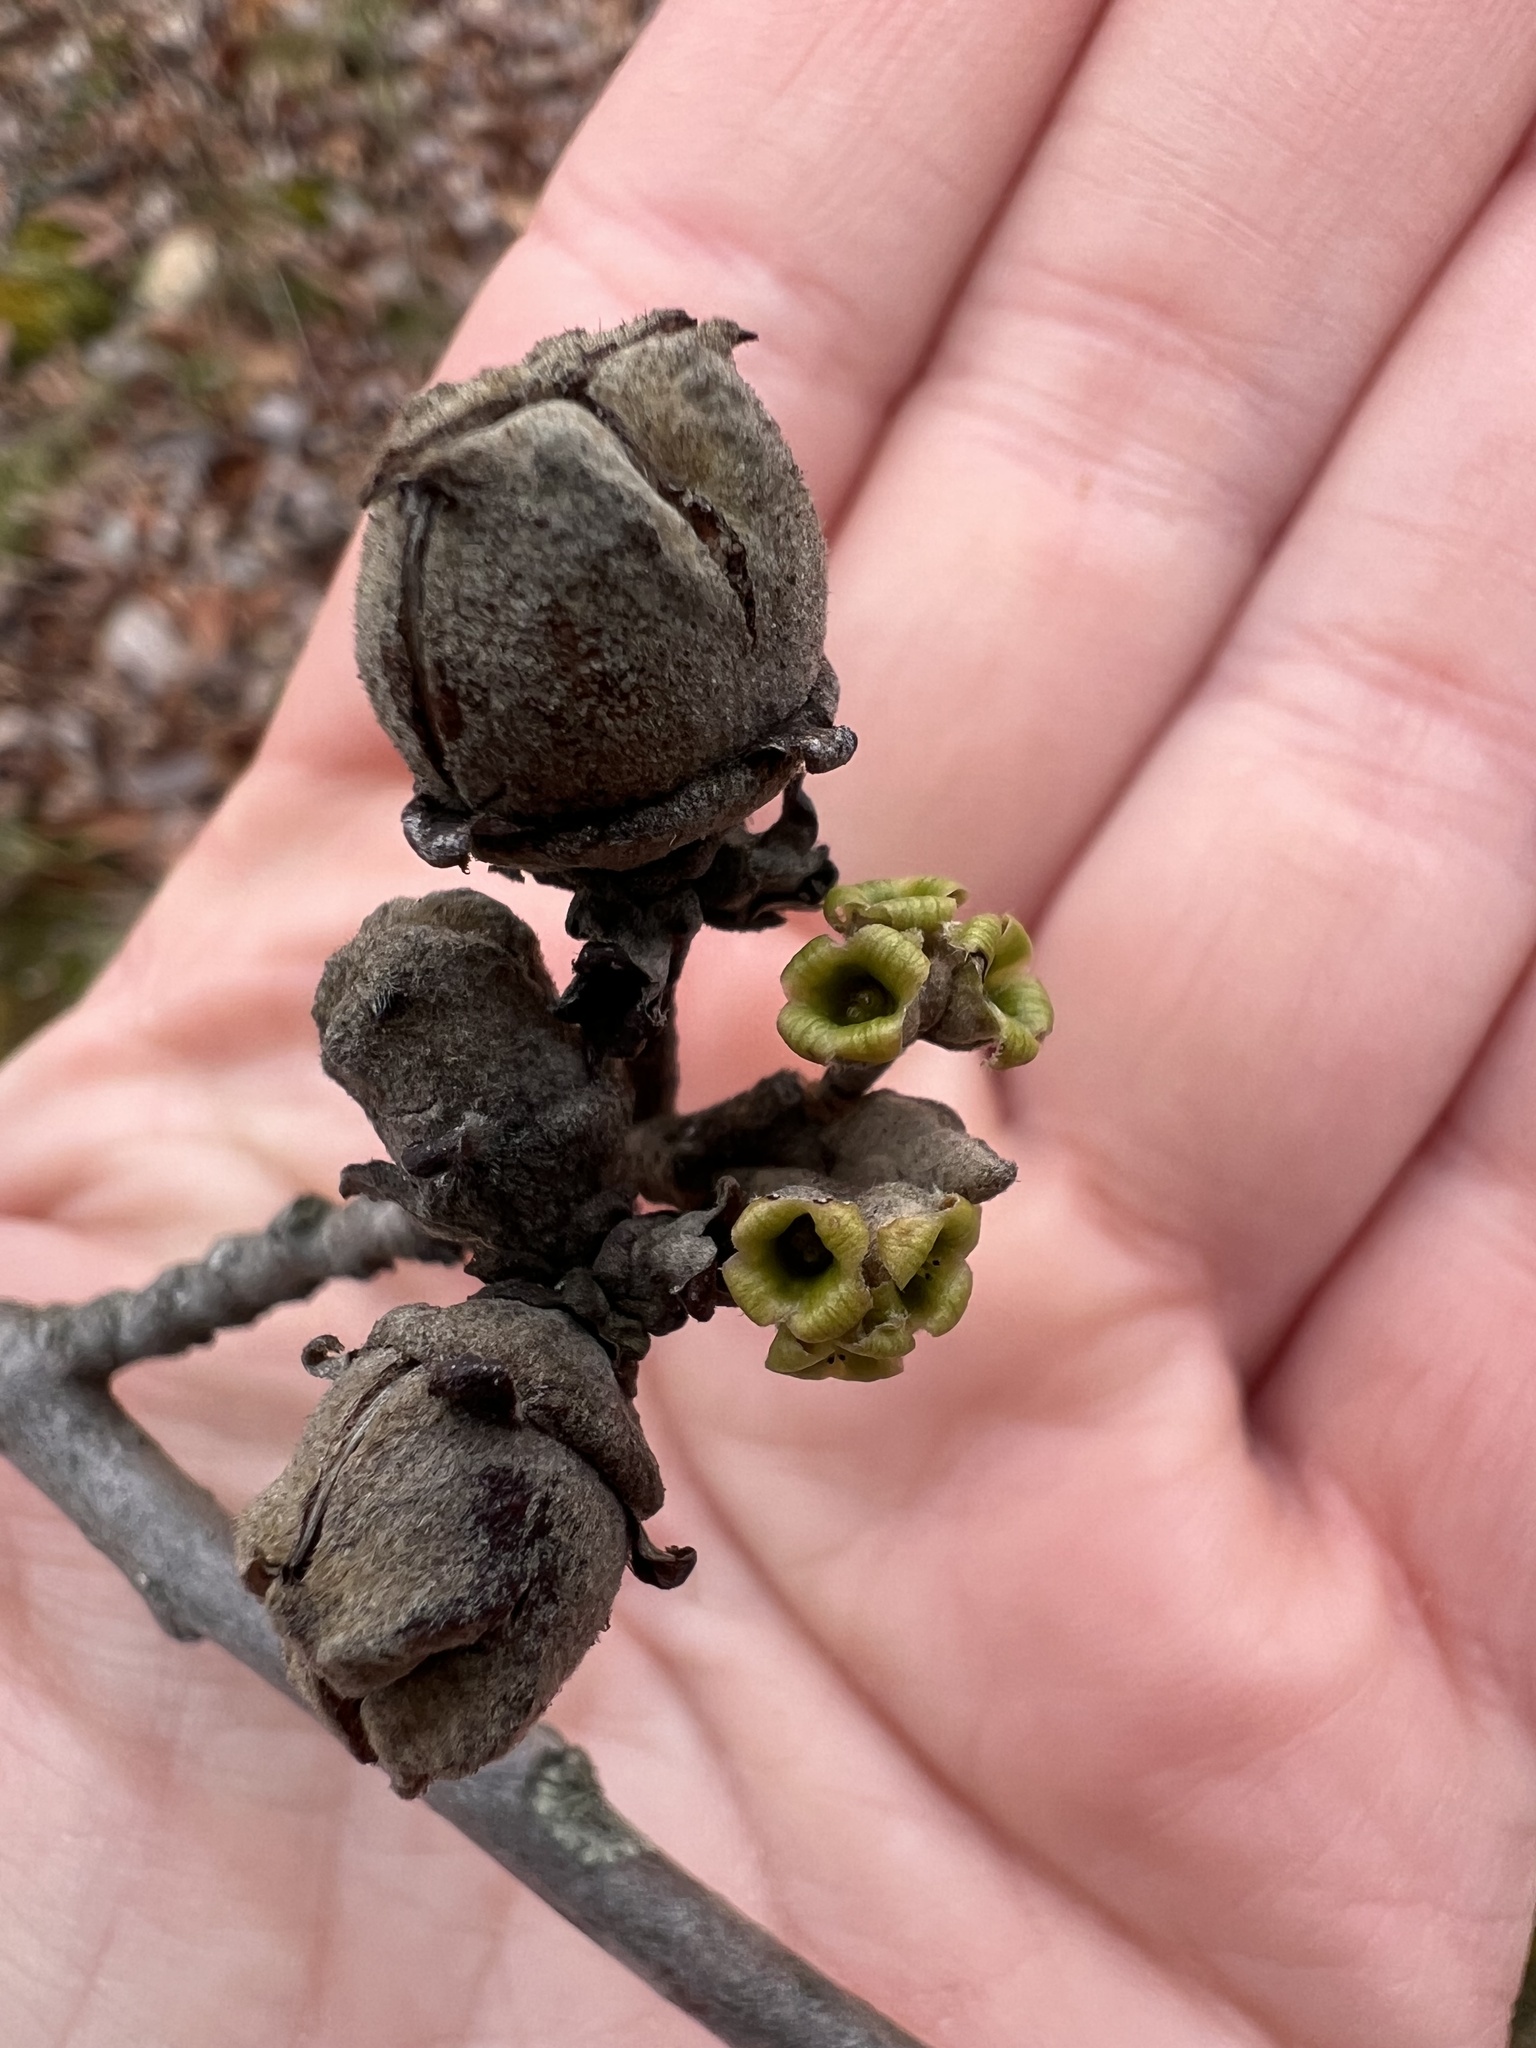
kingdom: Plantae
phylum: Tracheophyta
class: Magnoliopsida
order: Saxifragales
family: Hamamelidaceae
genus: Hamamelis
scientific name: Hamamelis virginiana
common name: Witch-hazel
